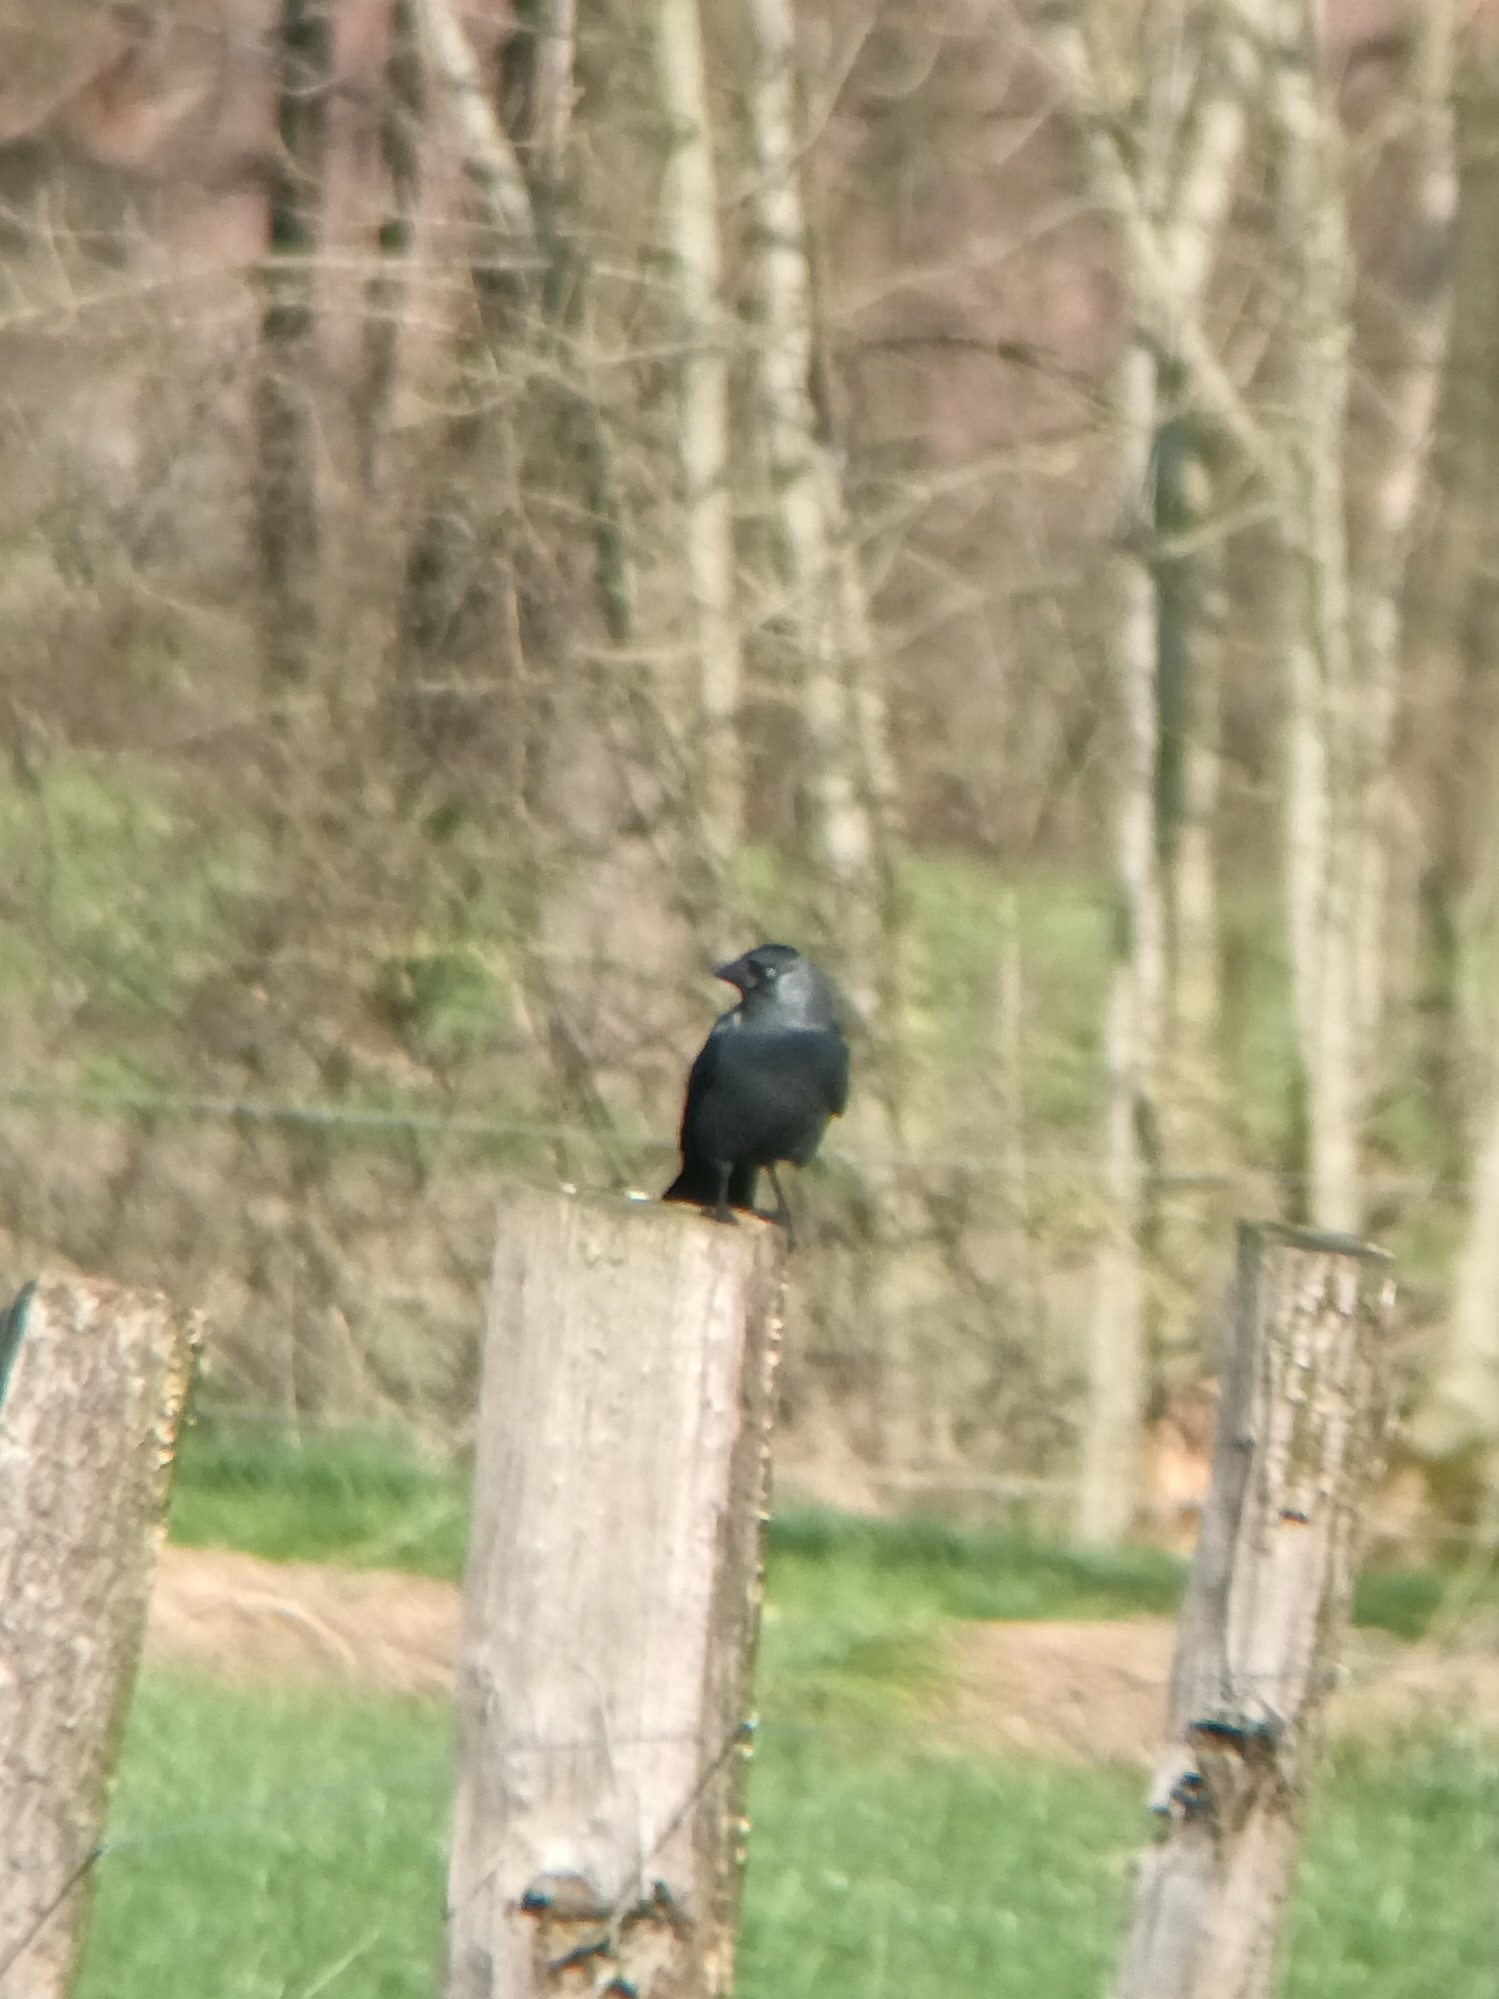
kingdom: Animalia
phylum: Chordata
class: Aves
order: Passeriformes
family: Corvidae
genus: Coloeus
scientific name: Coloeus monedula
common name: Western jackdaw
